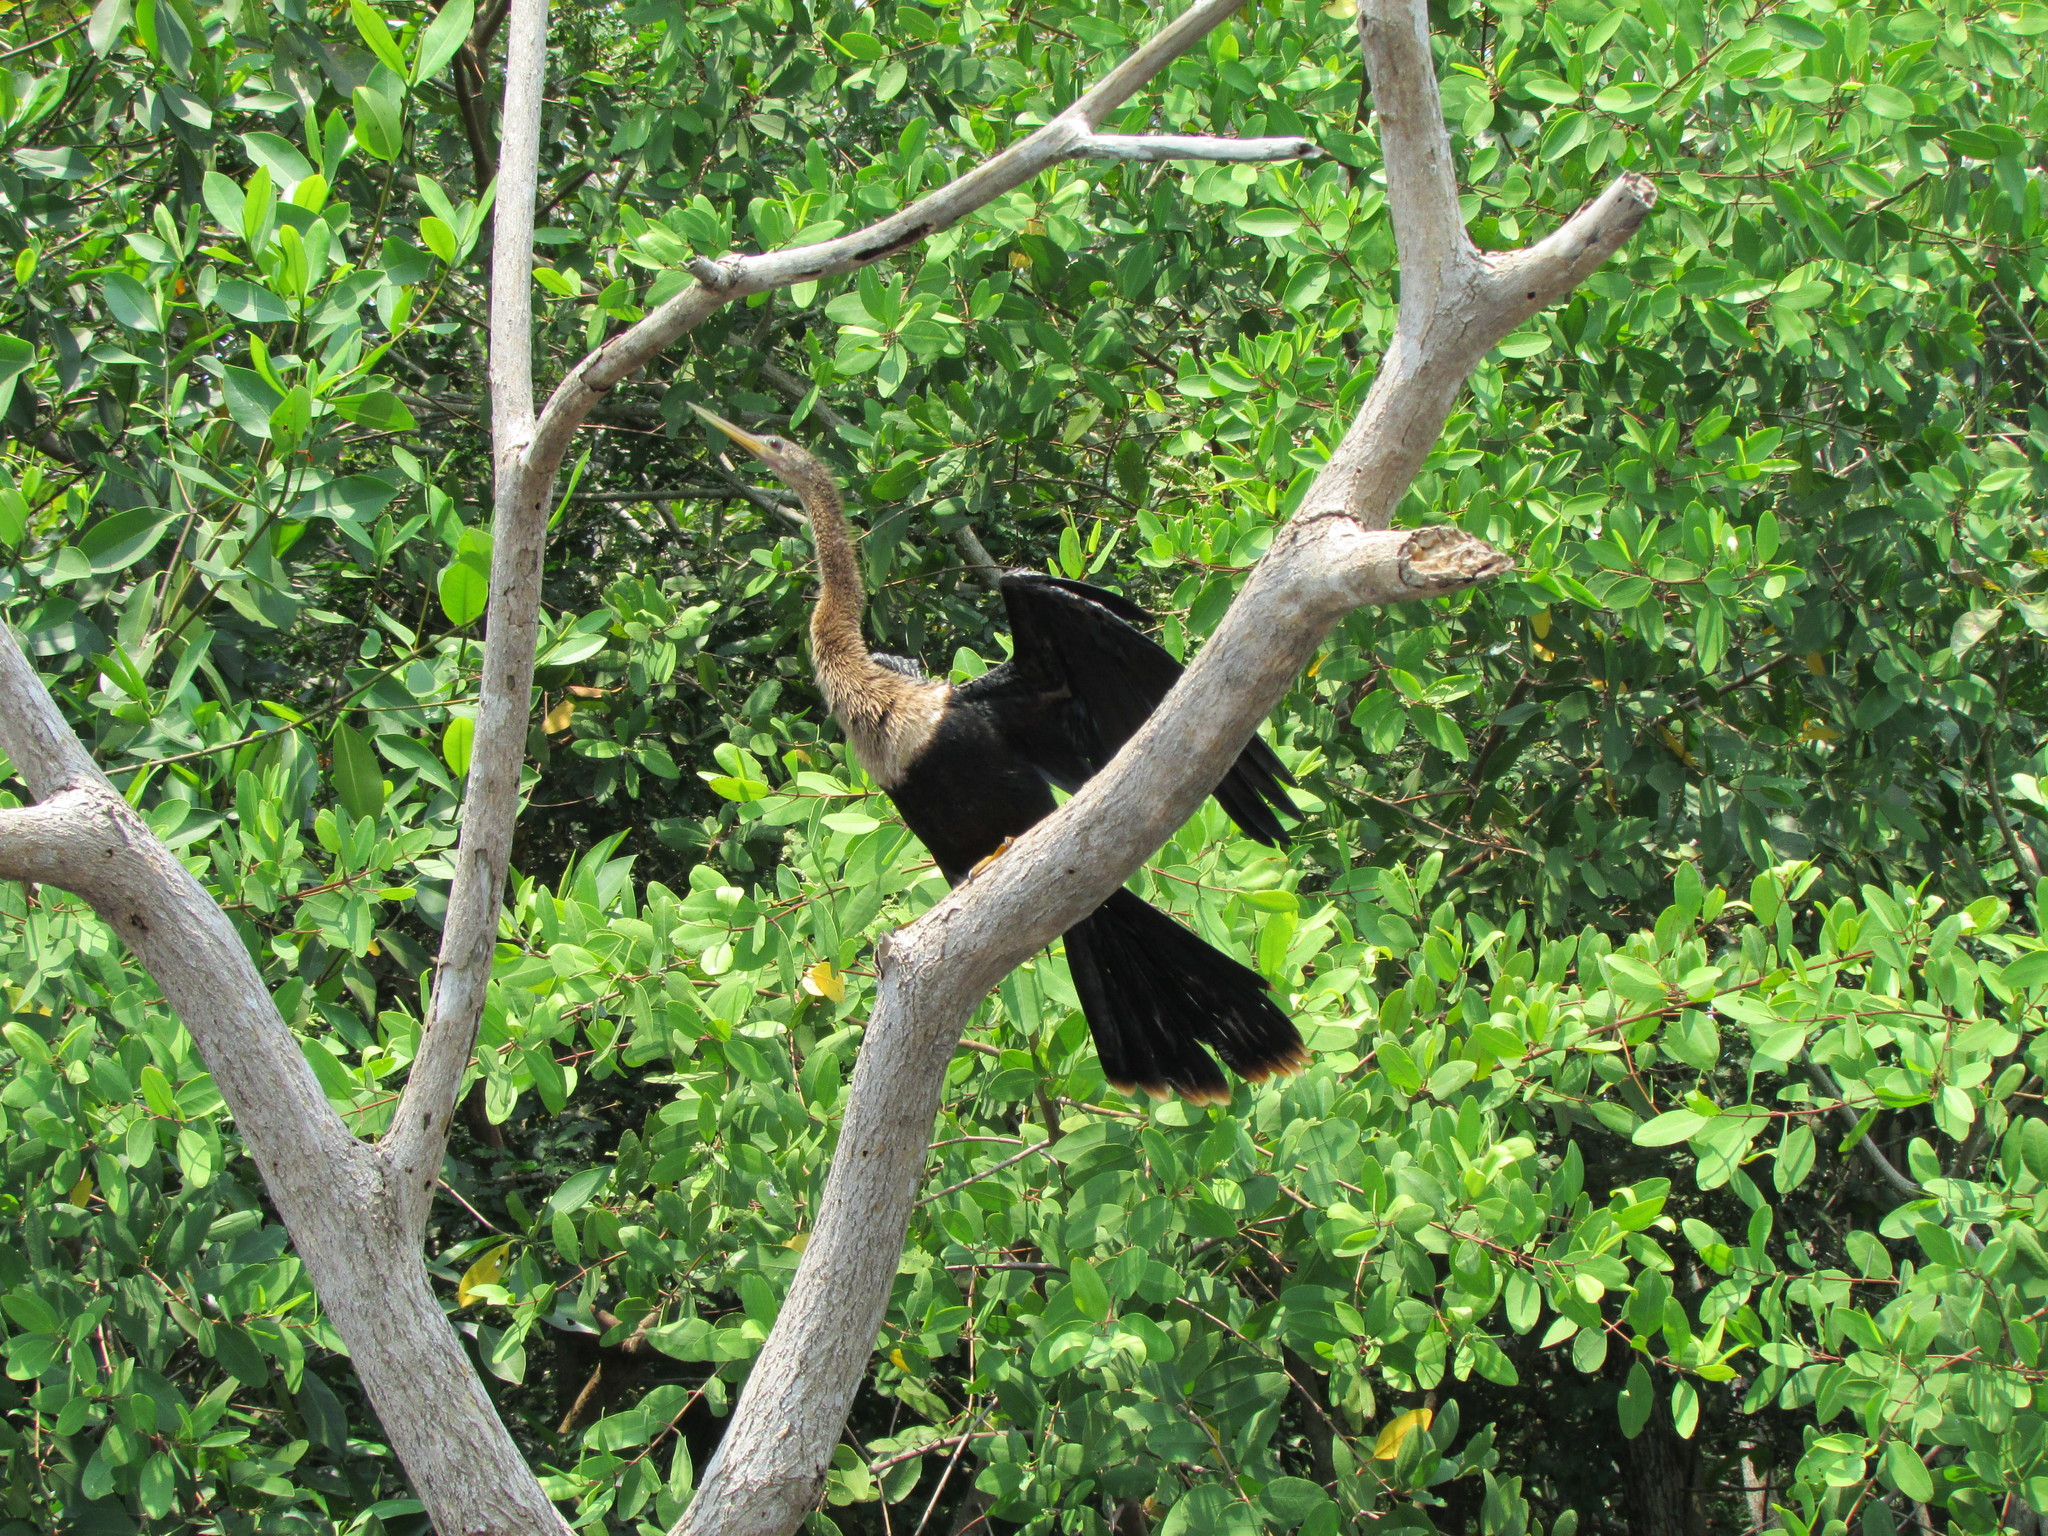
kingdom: Animalia
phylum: Chordata
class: Aves
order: Suliformes
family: Anhingidae
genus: Anhinga
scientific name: Anhinga anhinga
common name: Anhinga
